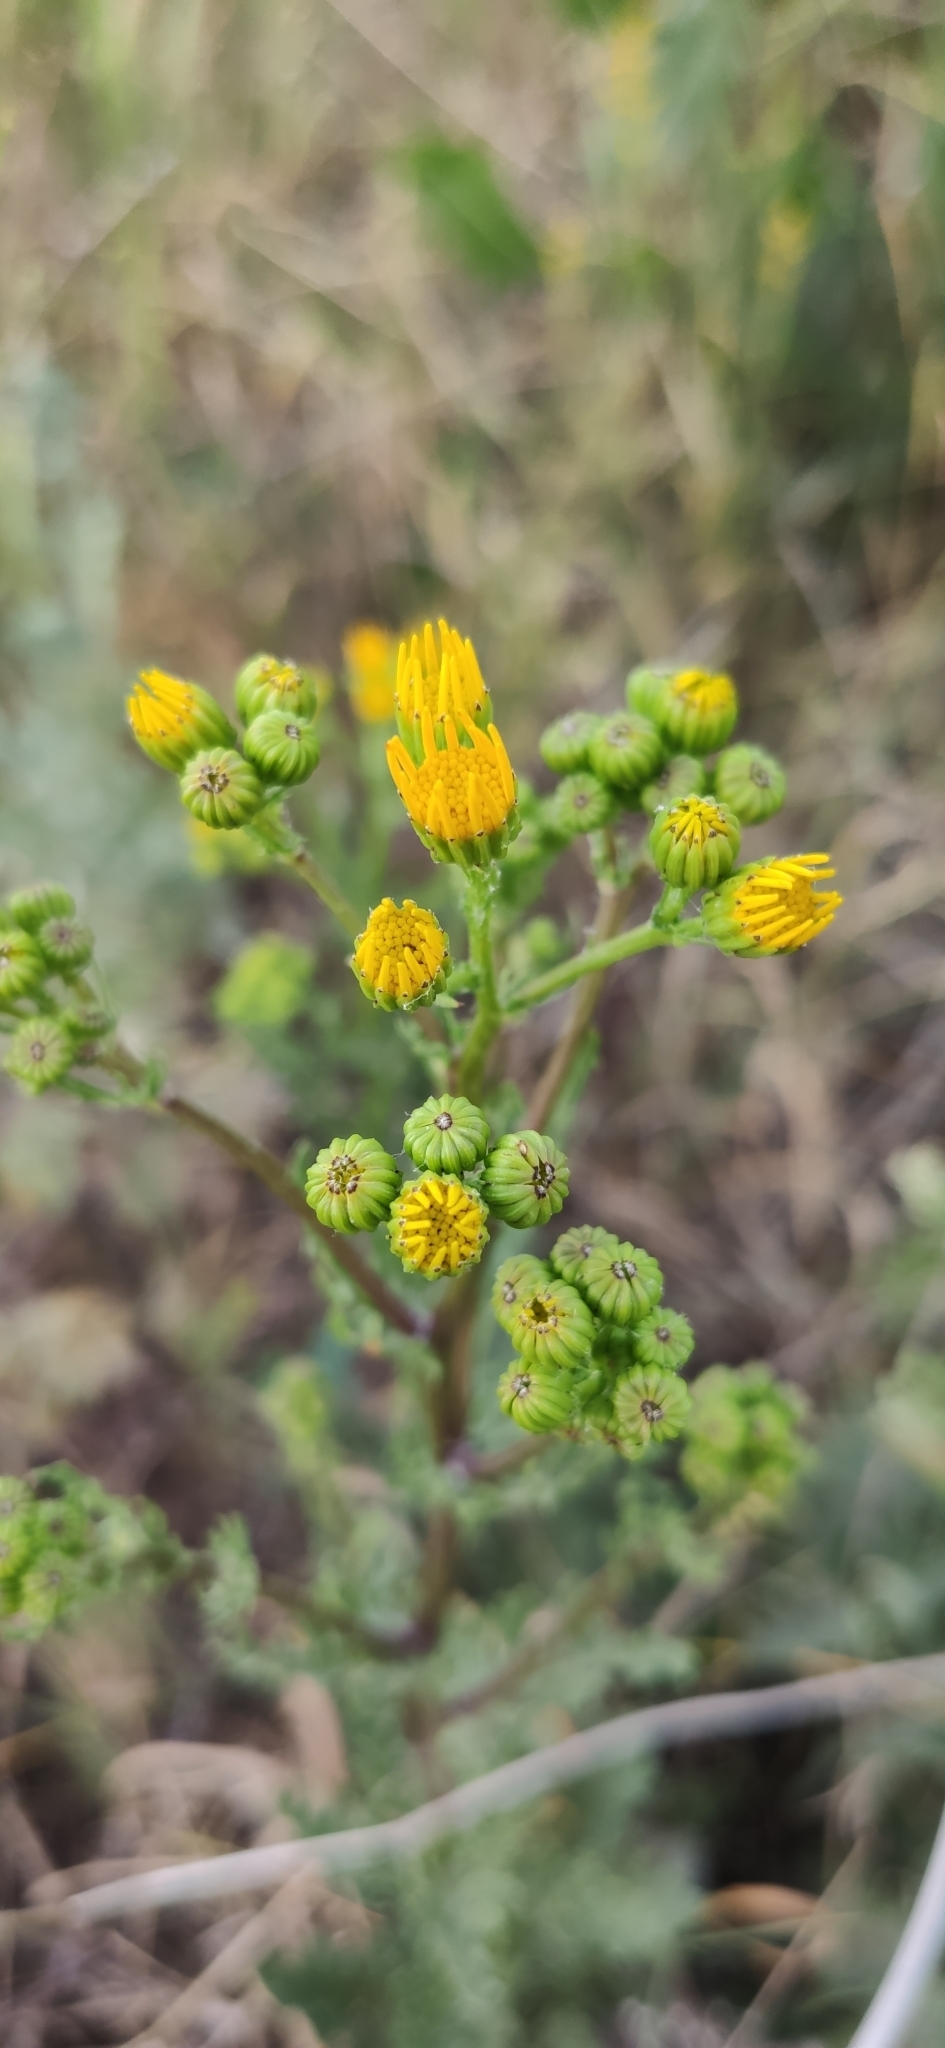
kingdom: Plantae
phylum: Tracheophyta
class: Magnoliopsida
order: Asterales
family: Asteraceae
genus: Jacobaea
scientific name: Jacobaea vulgaris
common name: Stinking willie
